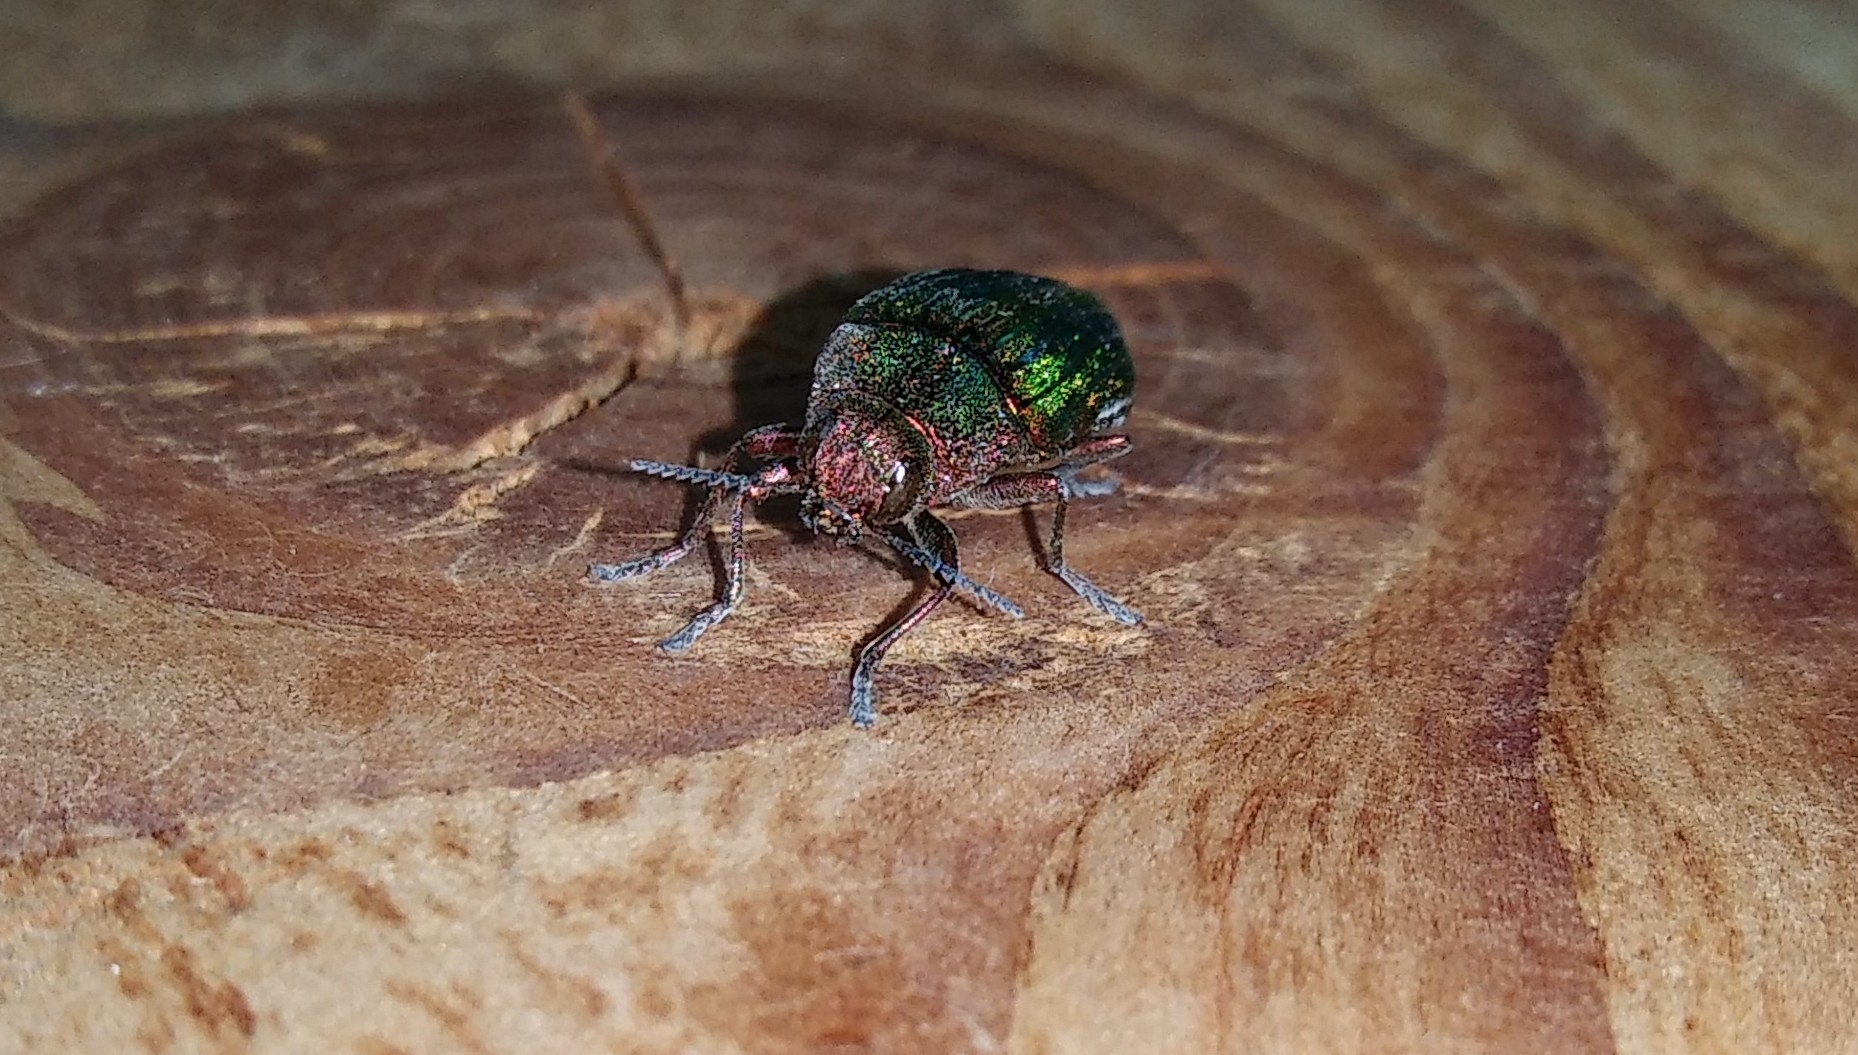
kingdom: Animalia
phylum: Arthropoda
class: Insecta
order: Coleoptera
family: Buprestidae
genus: Buprestis
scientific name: Buprestis aurulenta
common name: Golden buprestid
